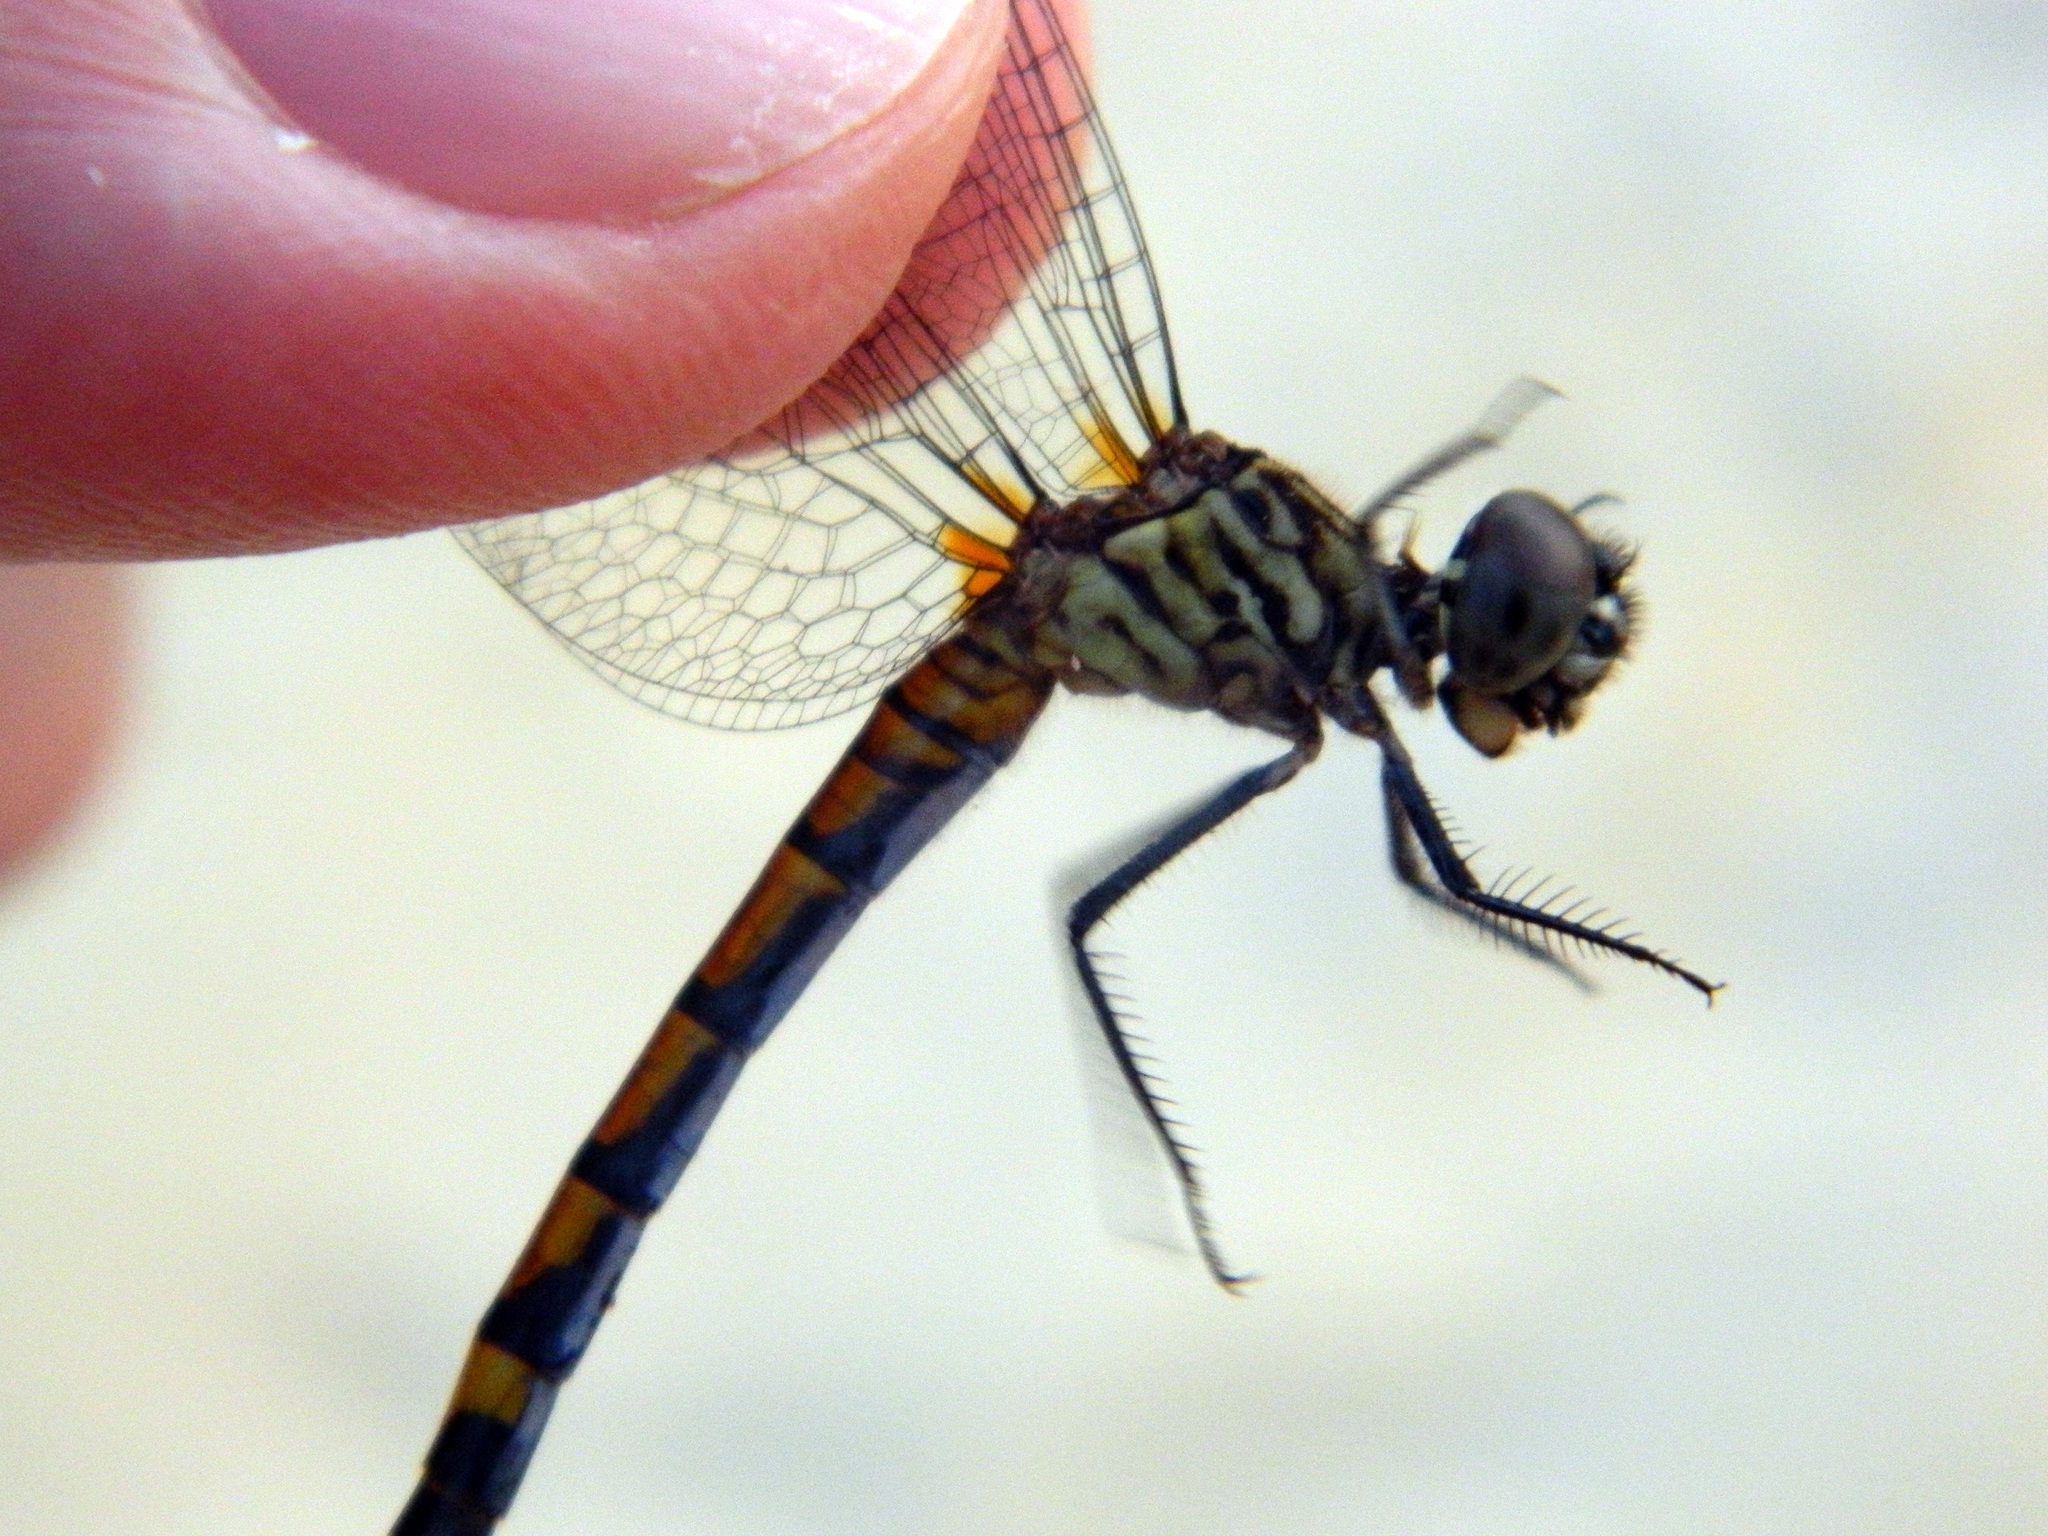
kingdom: Animalia
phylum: Arthropoda
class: Insecta
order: Odonata
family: Libellulidae
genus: Erythrodiplax
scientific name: Erythrodiplax berenice
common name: Seaside dragonlet
